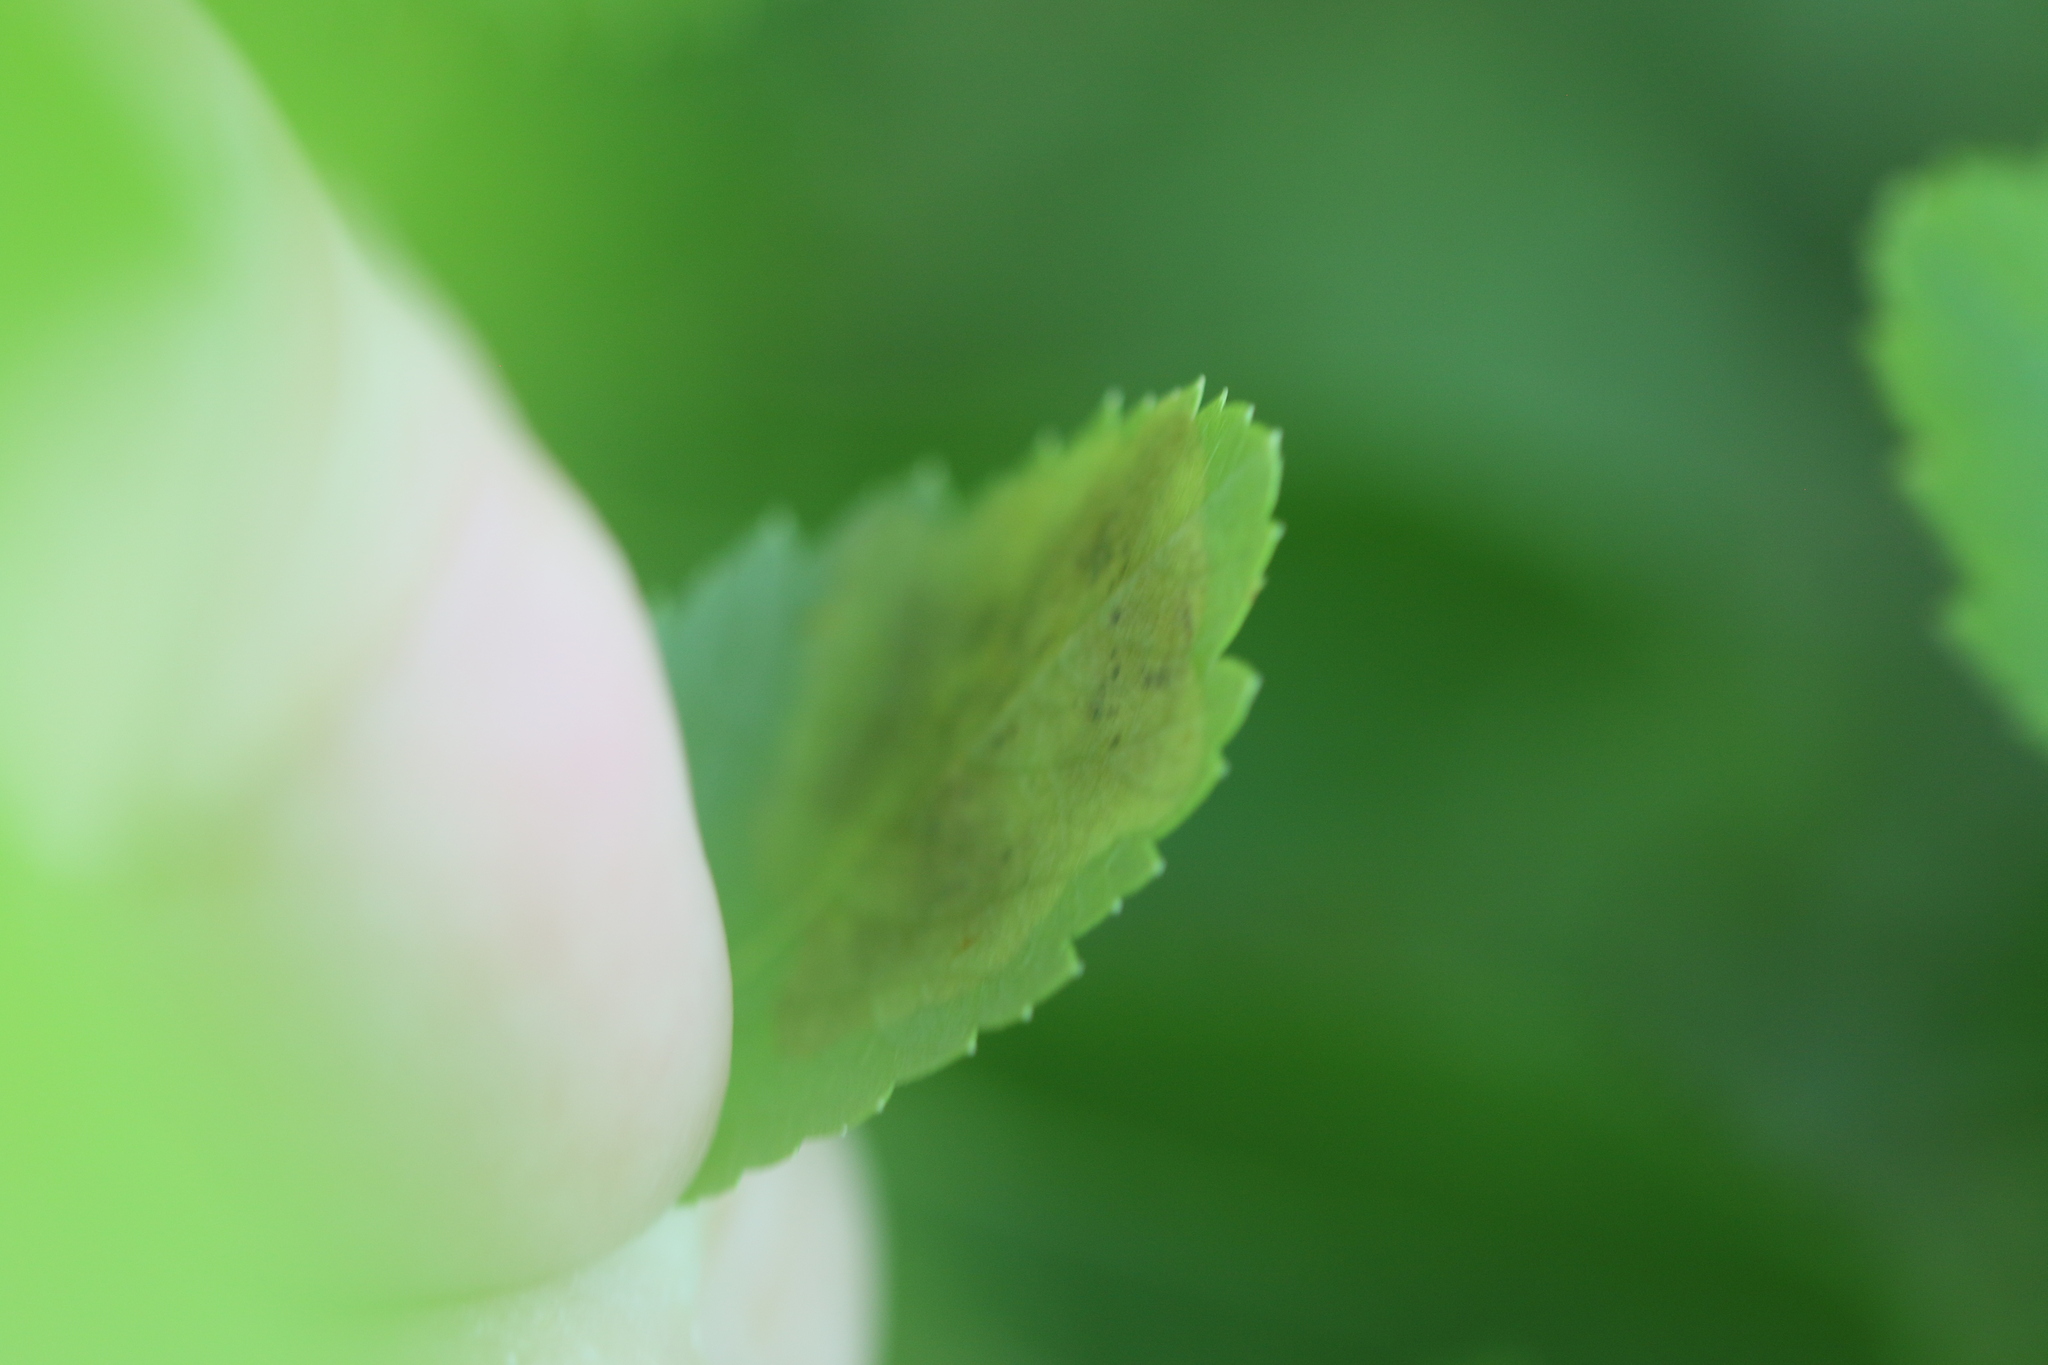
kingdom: Animalia
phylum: Arthropoda
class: Insecta
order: Diptera
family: Agromyzidae
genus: Agromyza
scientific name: Agromyza valdorensis
